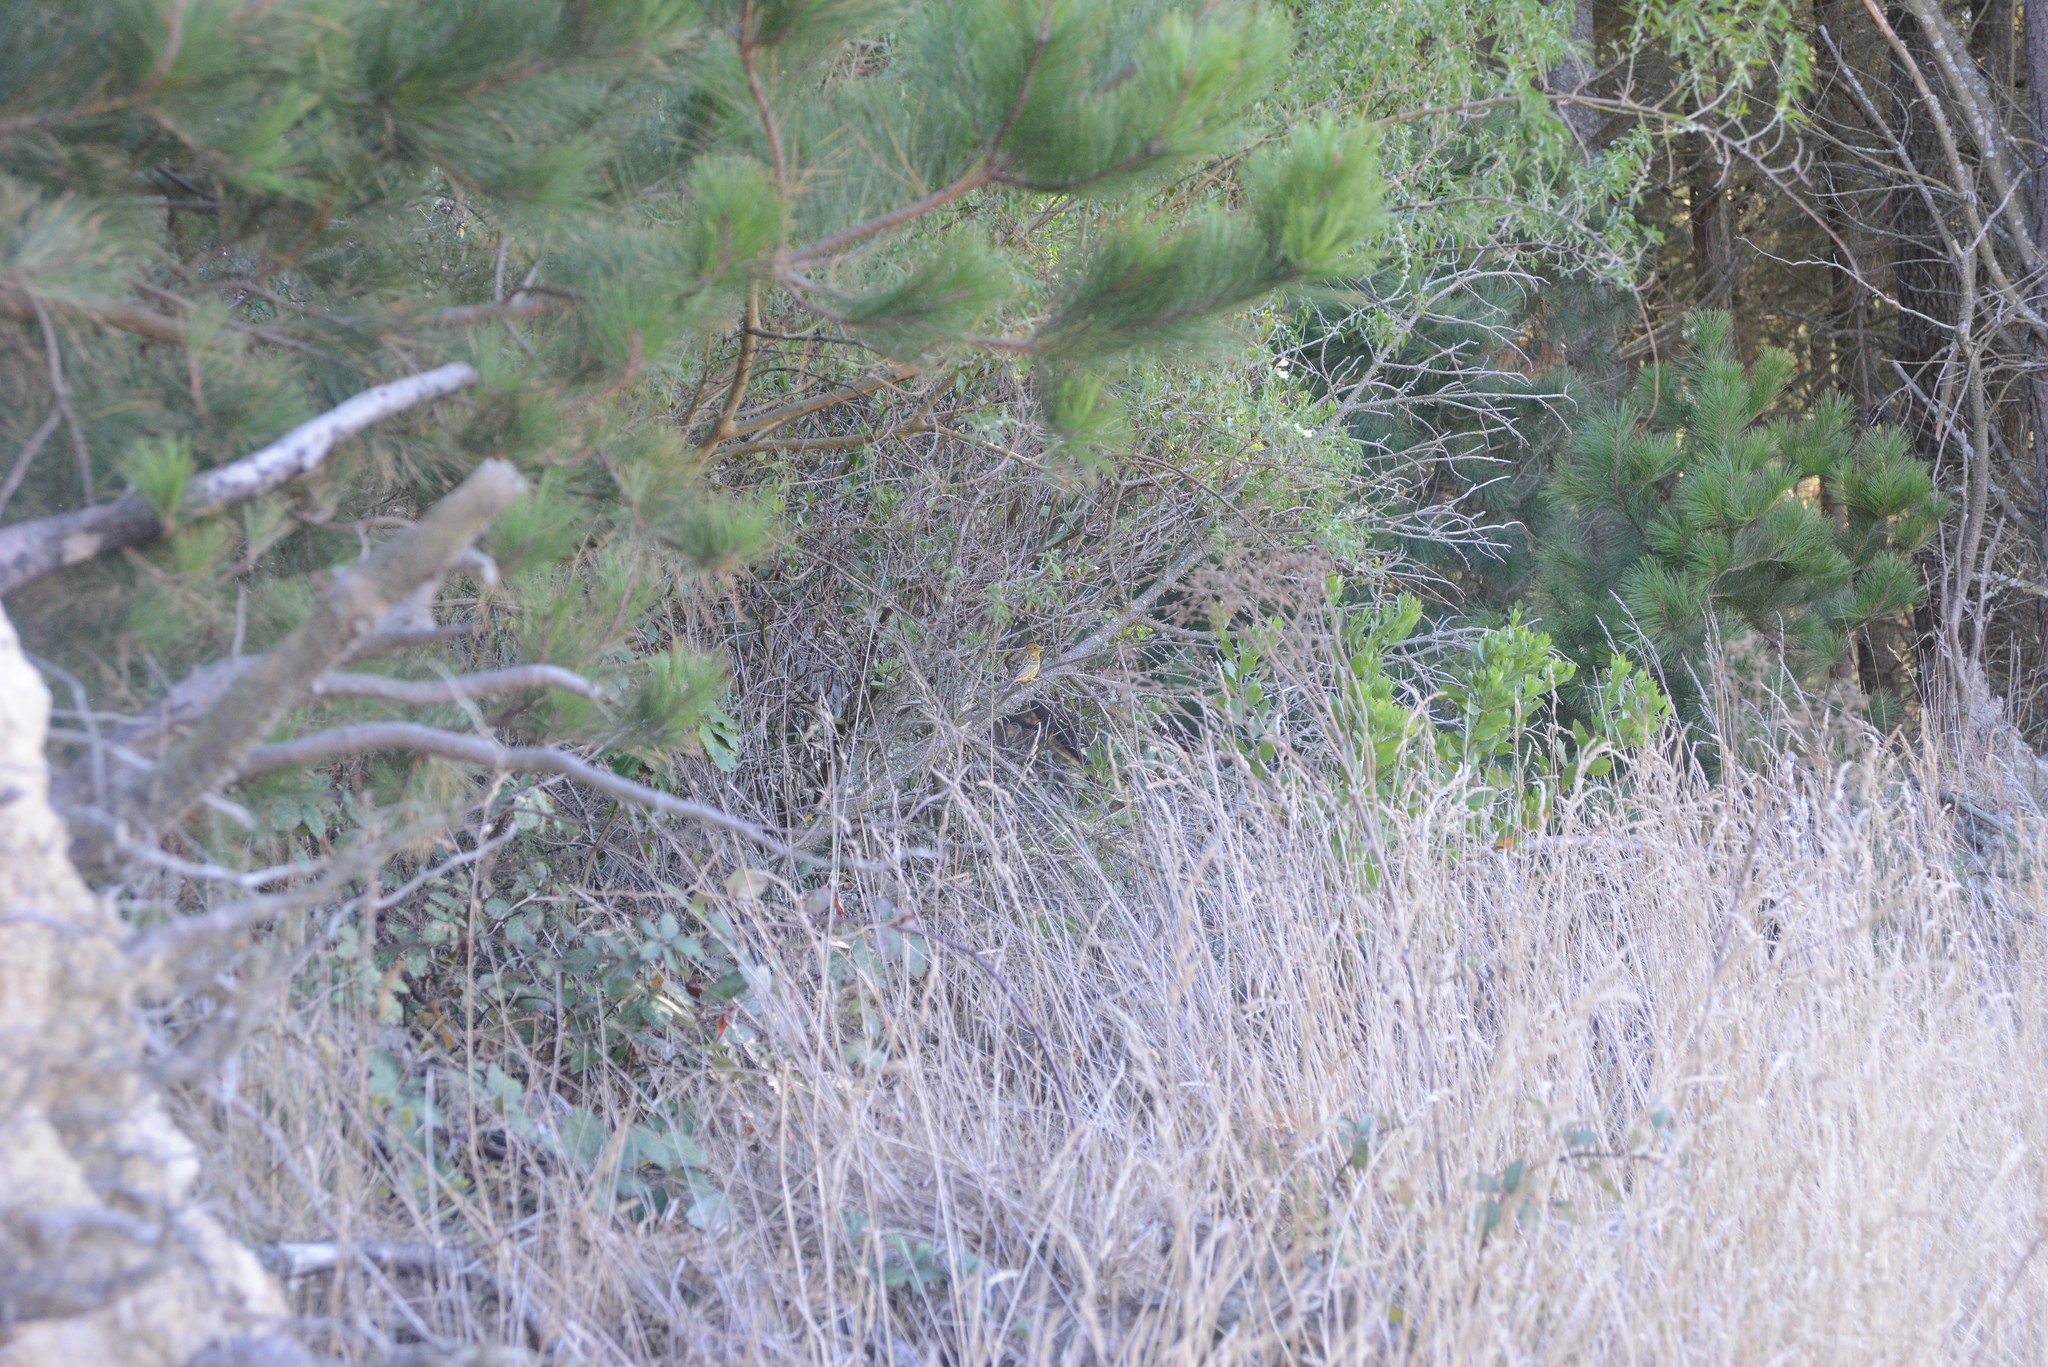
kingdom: Plantae
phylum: Tracheophyta
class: Magnoliopsida
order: Asterales
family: Asteraceae
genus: Osteospermum
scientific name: Osteospermum moniliferum
